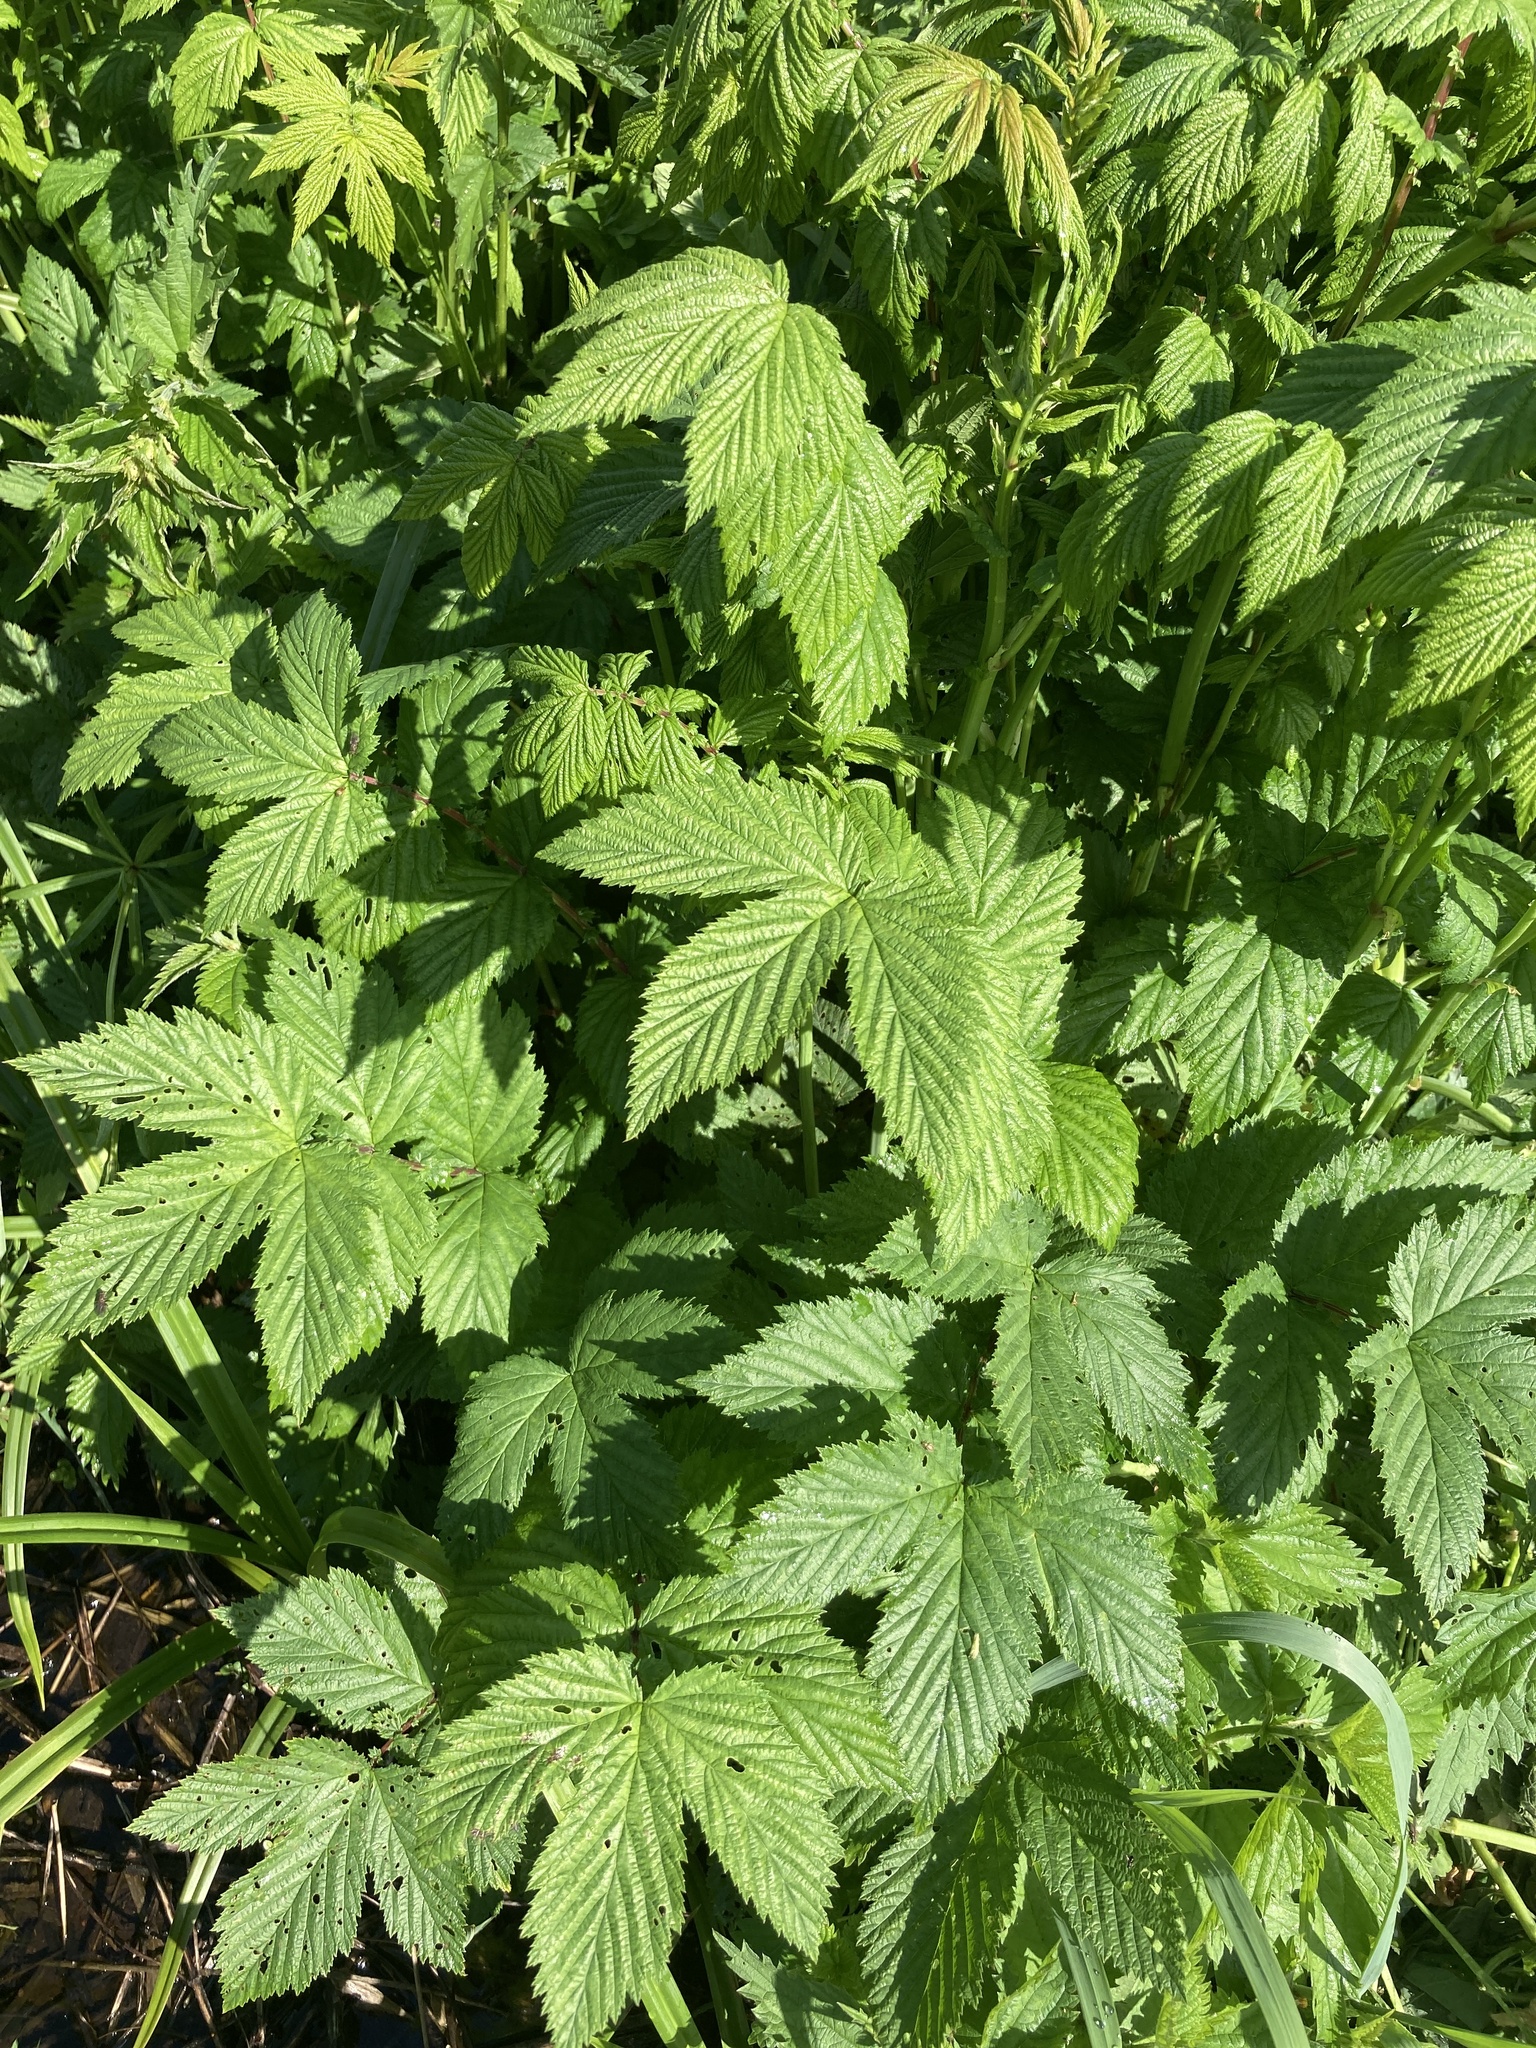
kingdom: Plantae
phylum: Tracheophyta
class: Magnoliopsida
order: Rosales
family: Rosaceae
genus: Filipendula
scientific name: Filipendula ulmaria
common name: Meadowsweet
